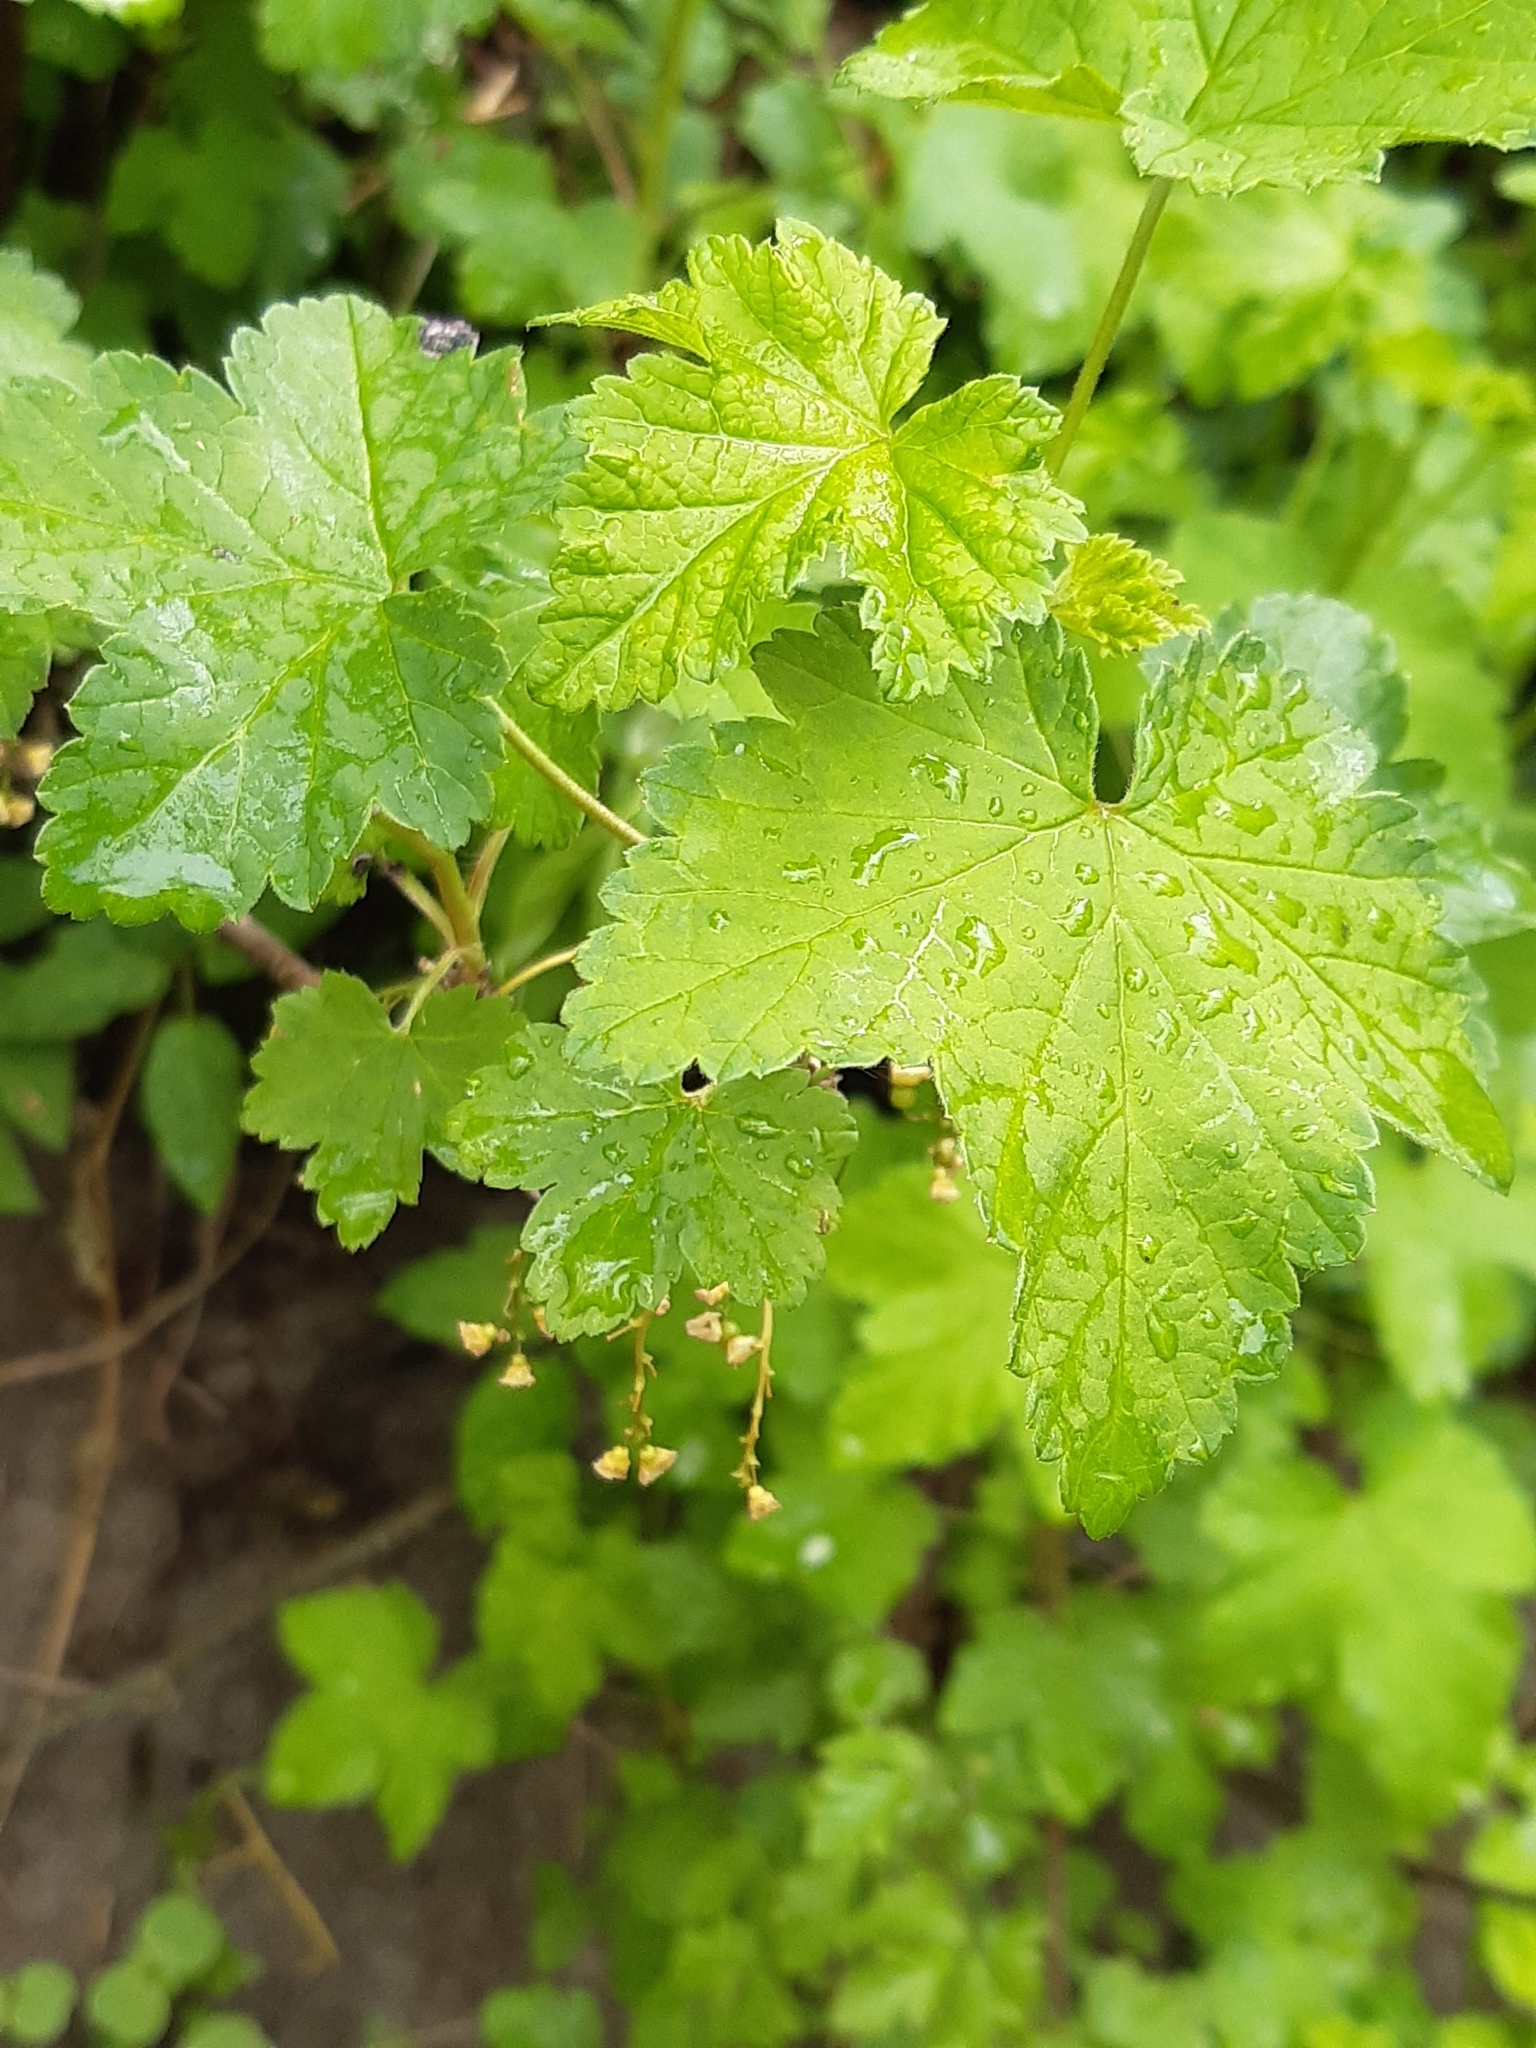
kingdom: Plantae
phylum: Tracheophyta
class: Magnoliopsida
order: Saxifragales
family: Grossulariaceae
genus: Ribes
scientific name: Ribes rubrum
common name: Red currant
